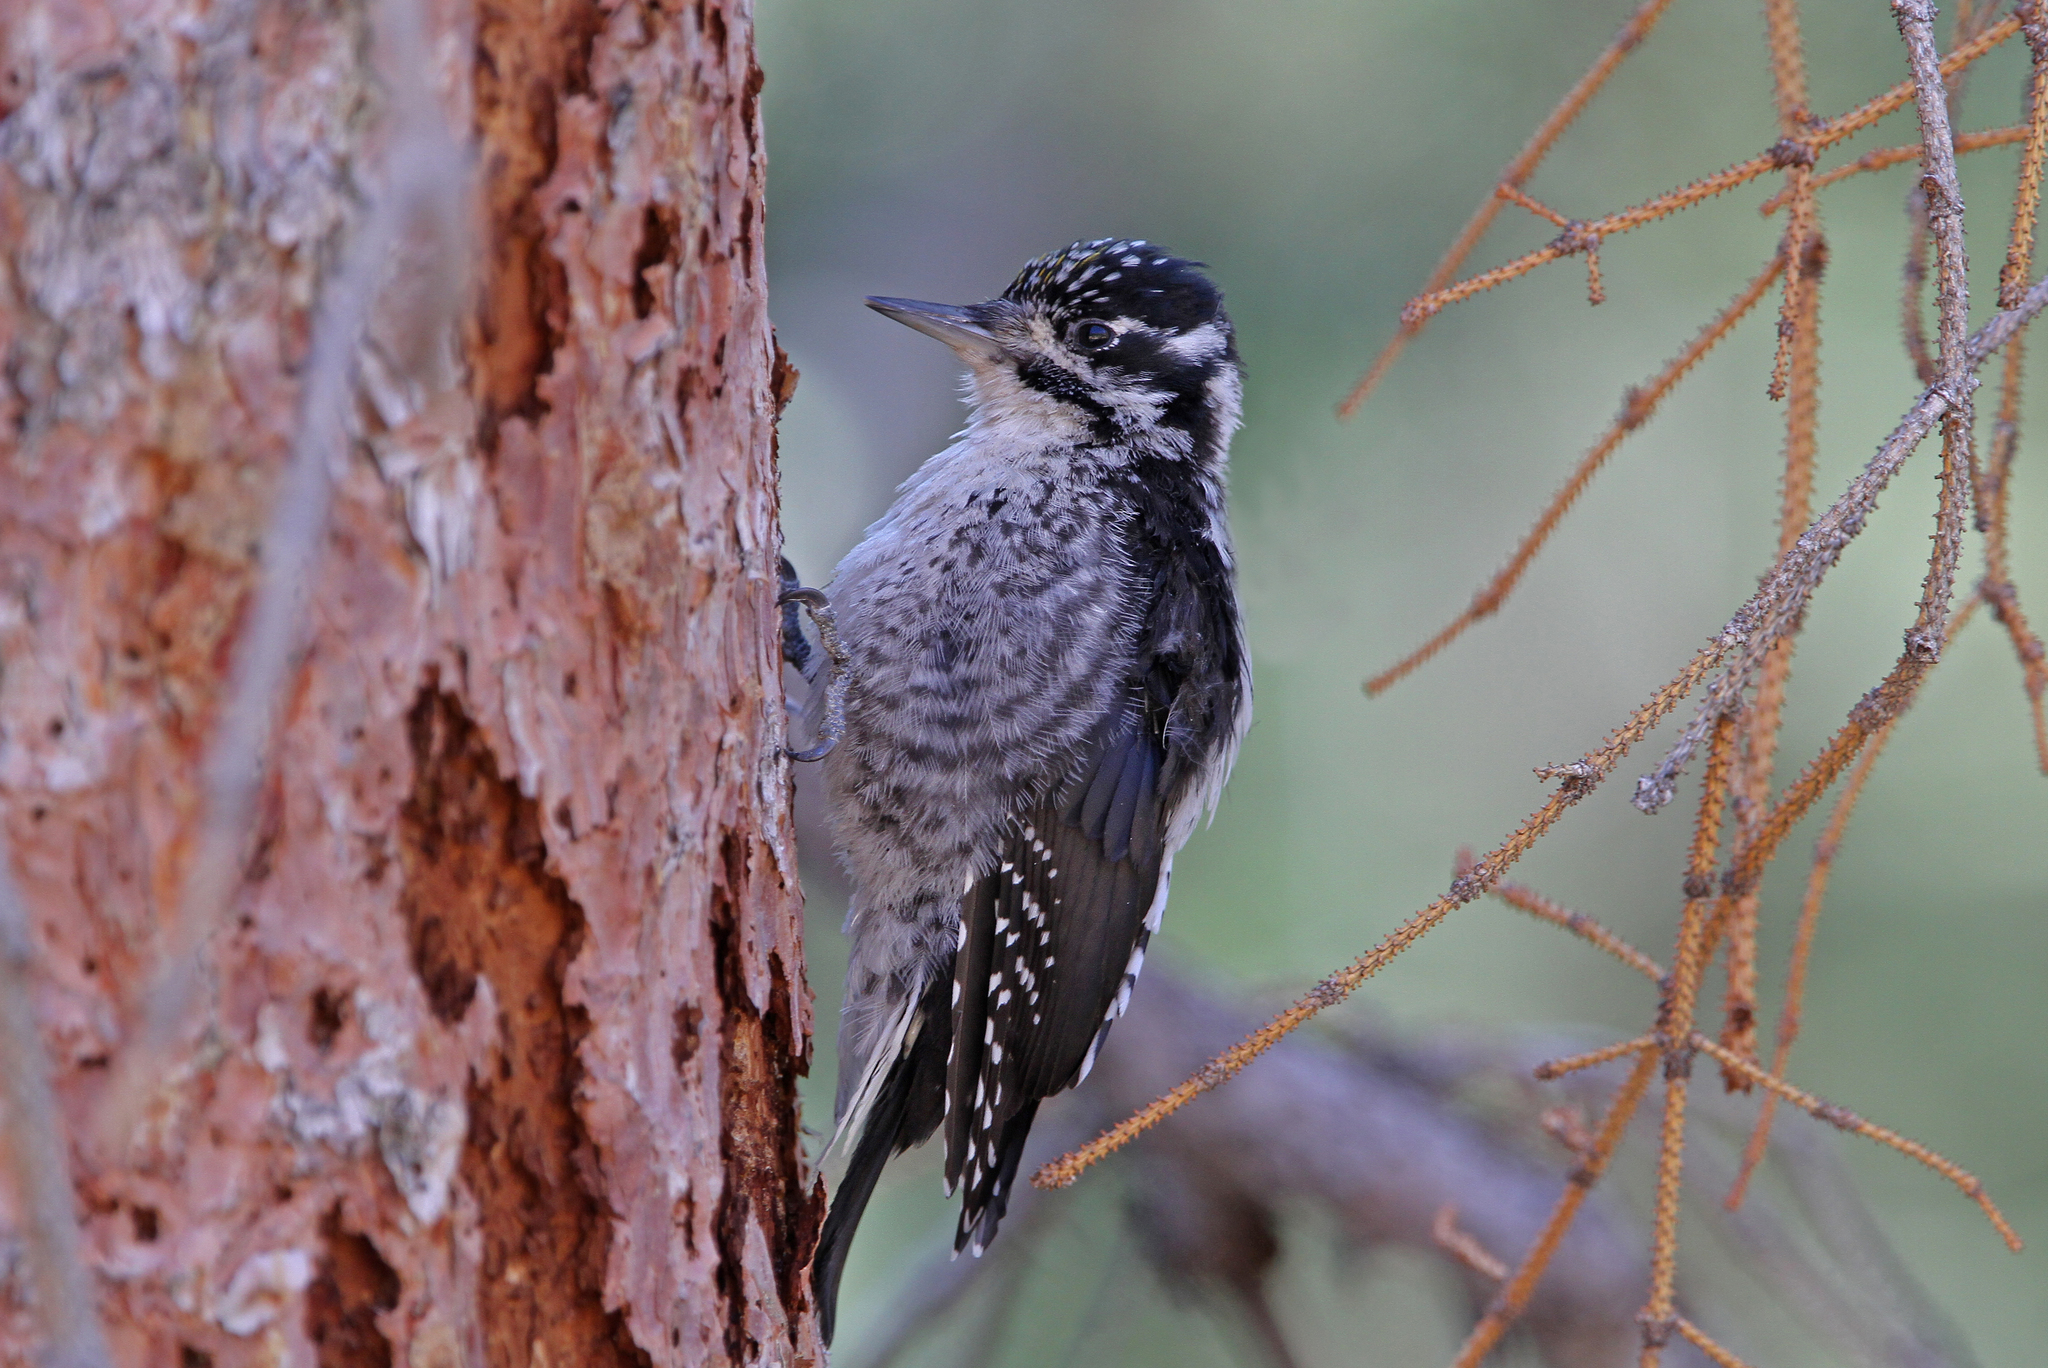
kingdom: Animalia
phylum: Chordata
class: Aves
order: Piciformes
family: Picidae
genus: Picoides
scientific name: Picoides dorsalis
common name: American three-toed woodpecker
